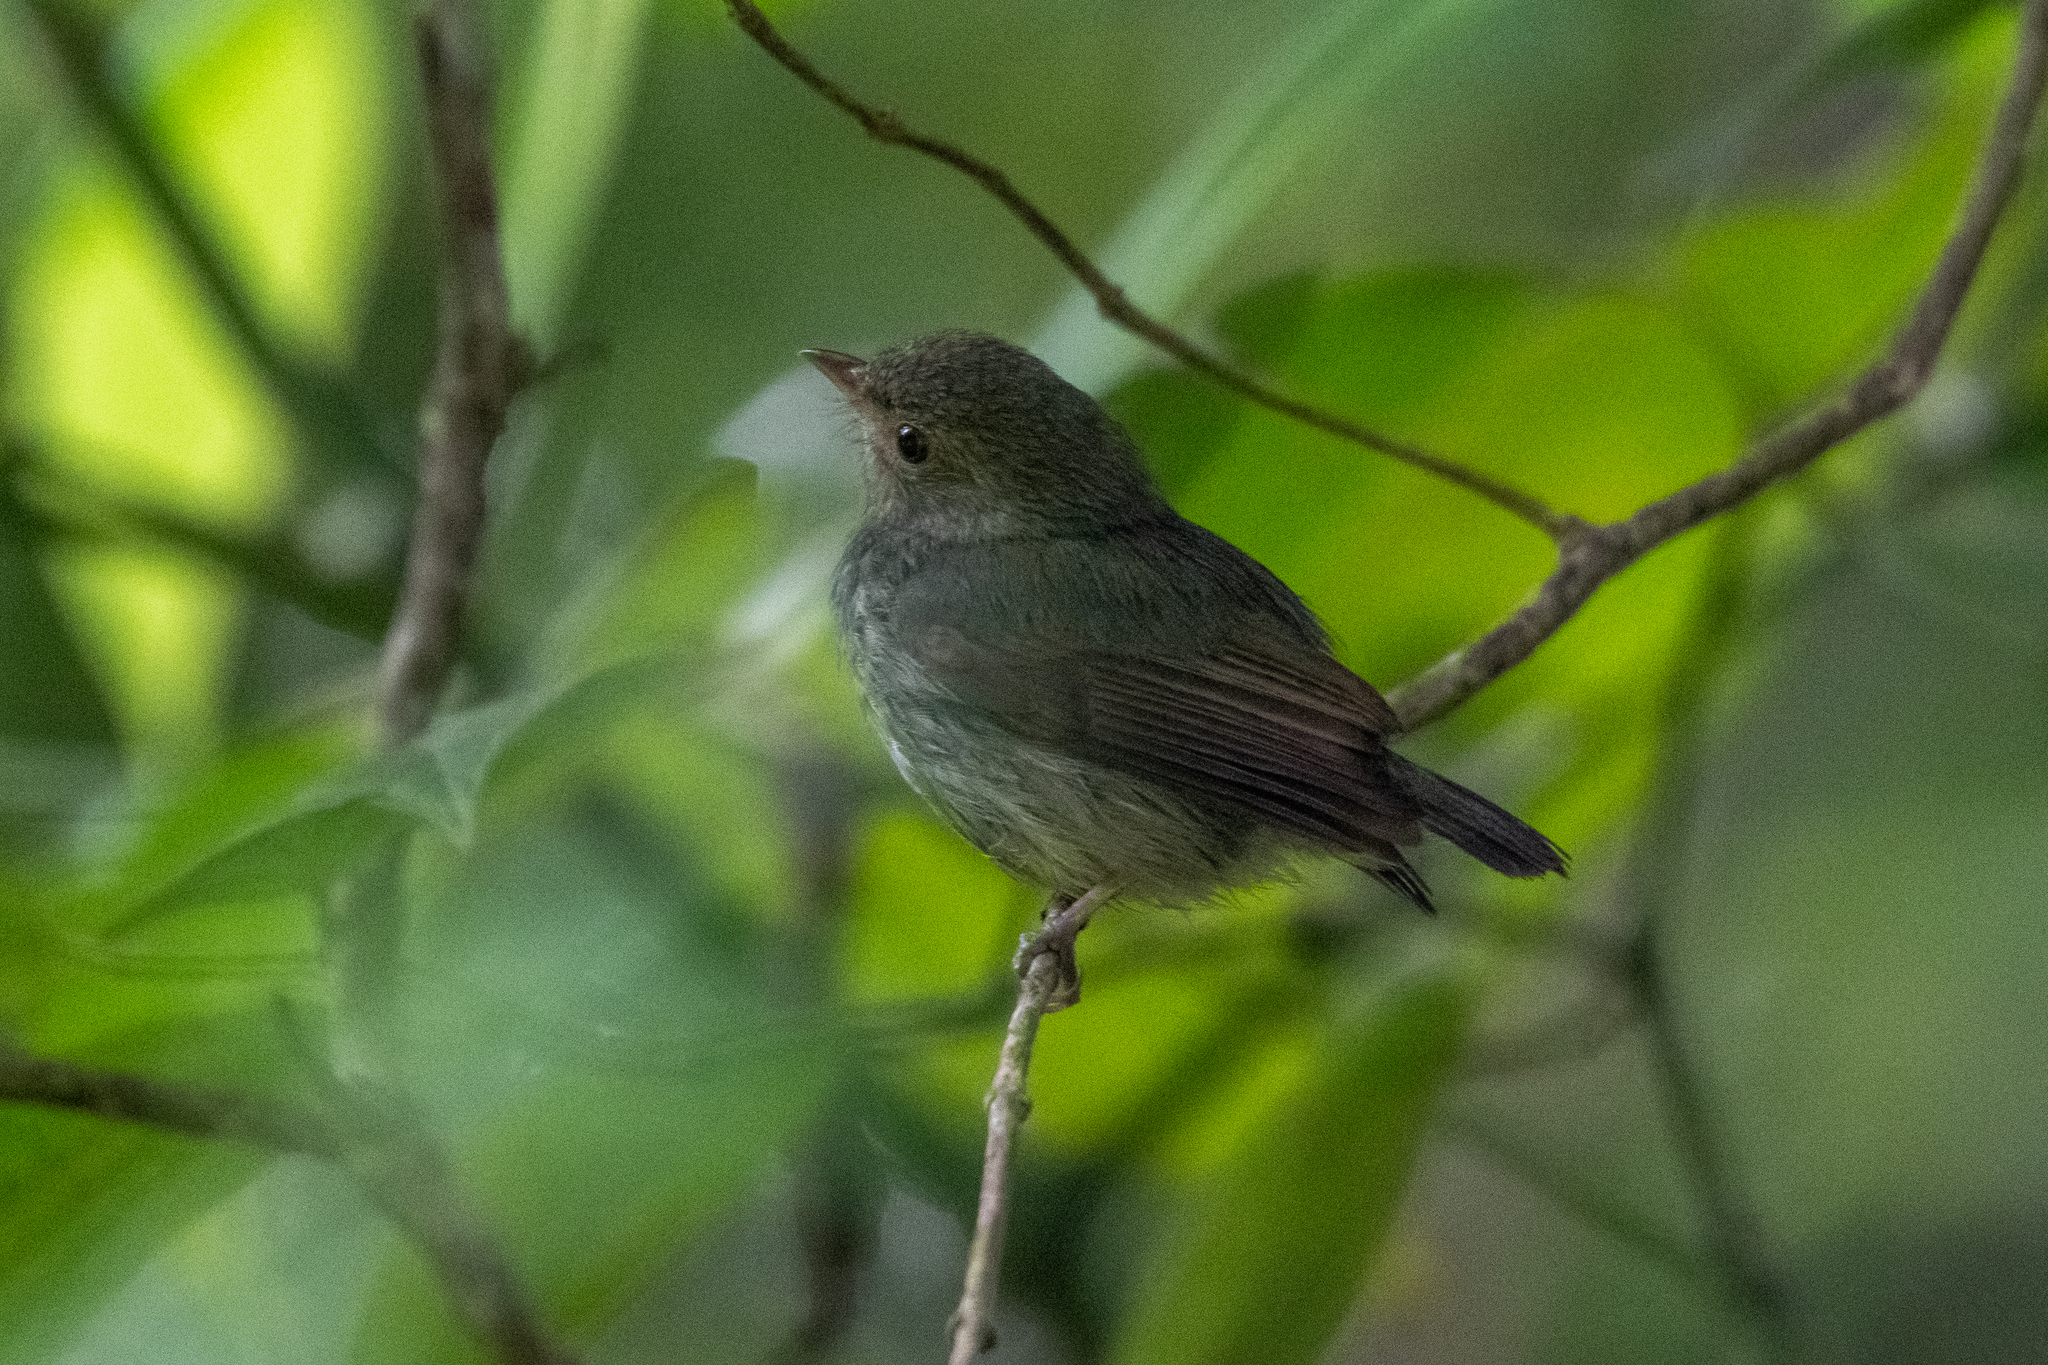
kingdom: Animalia
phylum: Chordata
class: Aves
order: Passeriformes
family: Pipridae
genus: Pipra
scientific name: Pipra mentalis
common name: Red-capped manakin
